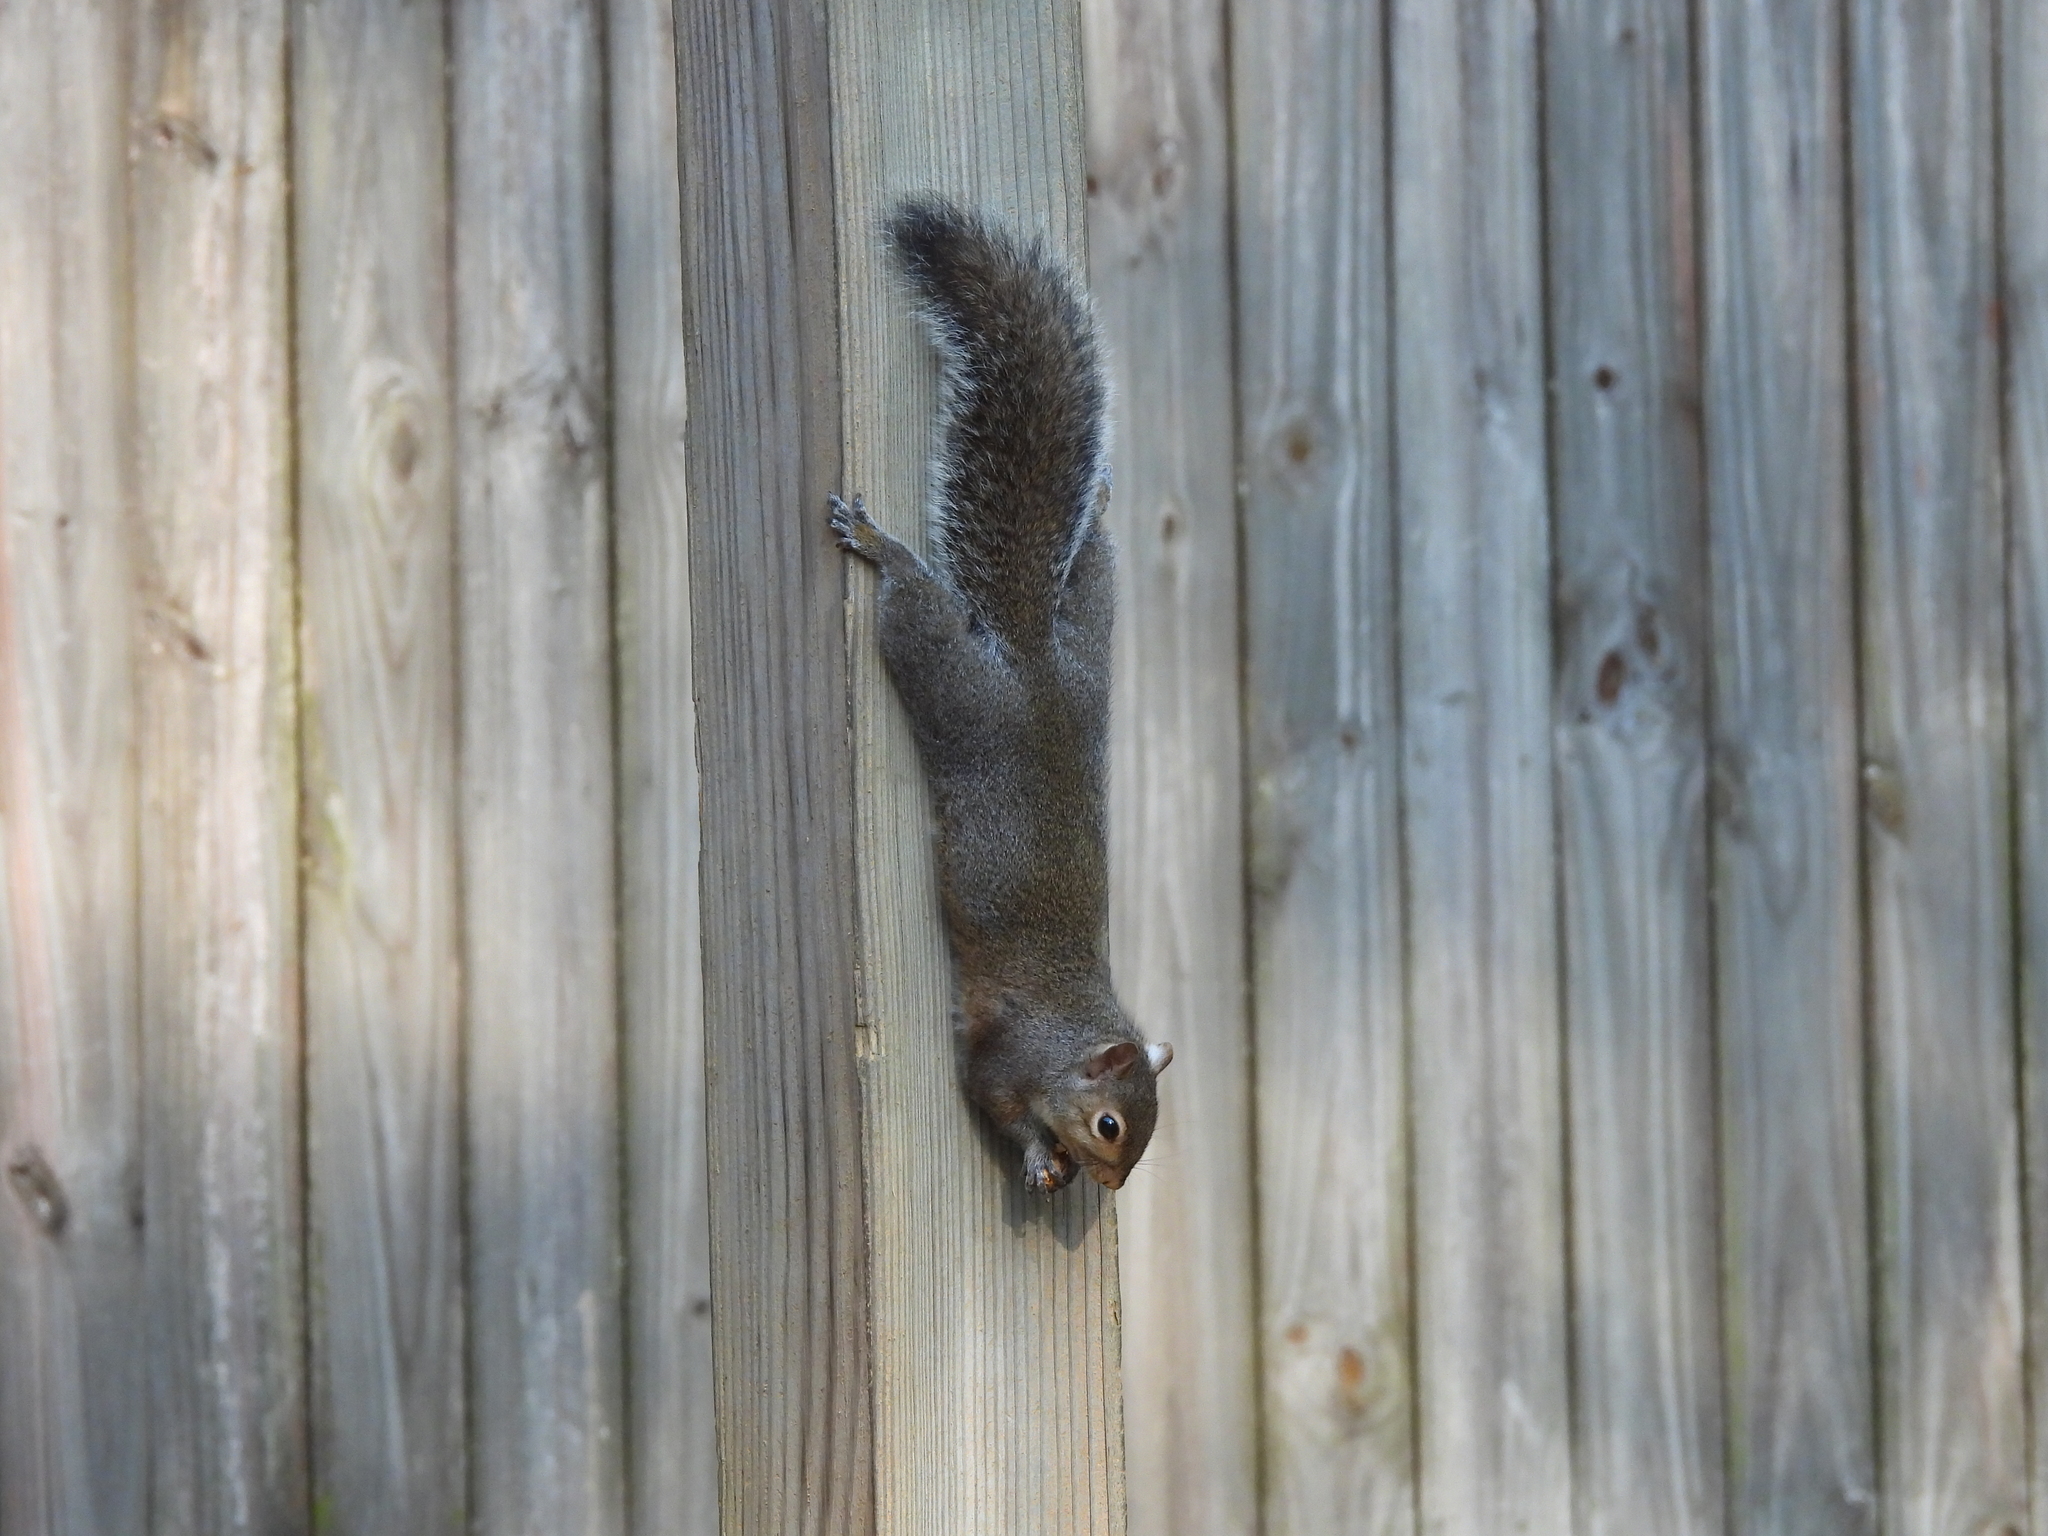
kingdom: Animalia
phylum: Chordata
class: Mammalia
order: Rodentia
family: Sciuridae
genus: Sciurus
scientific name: Sciurus carolinensis
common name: Eastern gray squirrel
